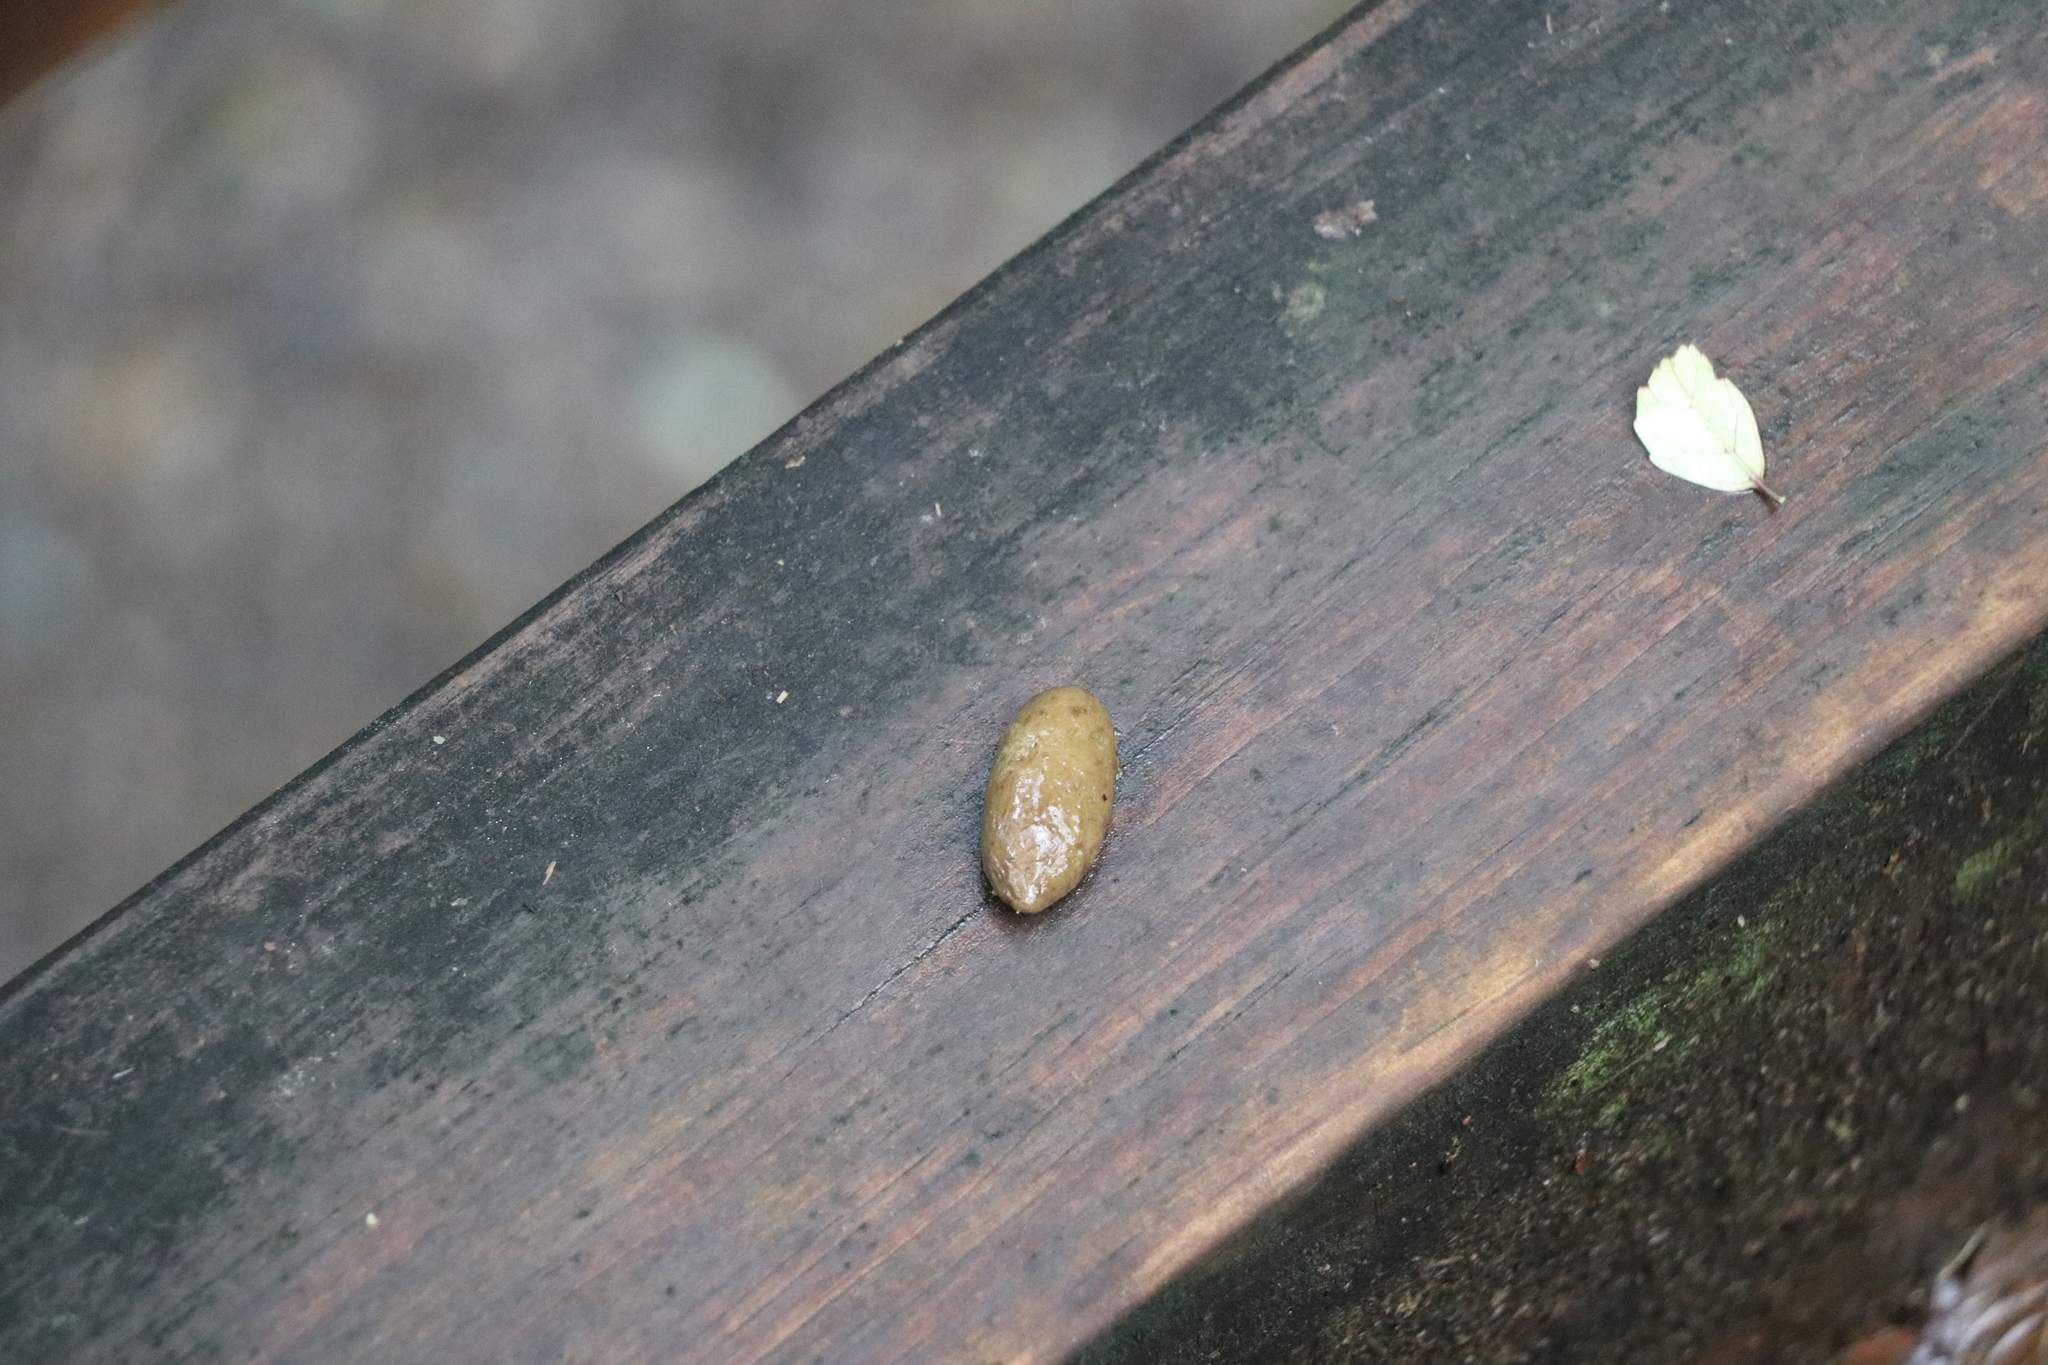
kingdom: Animalia
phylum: Chordata
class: Mammalia
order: Diprotodontia
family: Phalangeridae
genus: Trichosurus
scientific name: Trichosurus vulpecula
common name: Common brushtail
